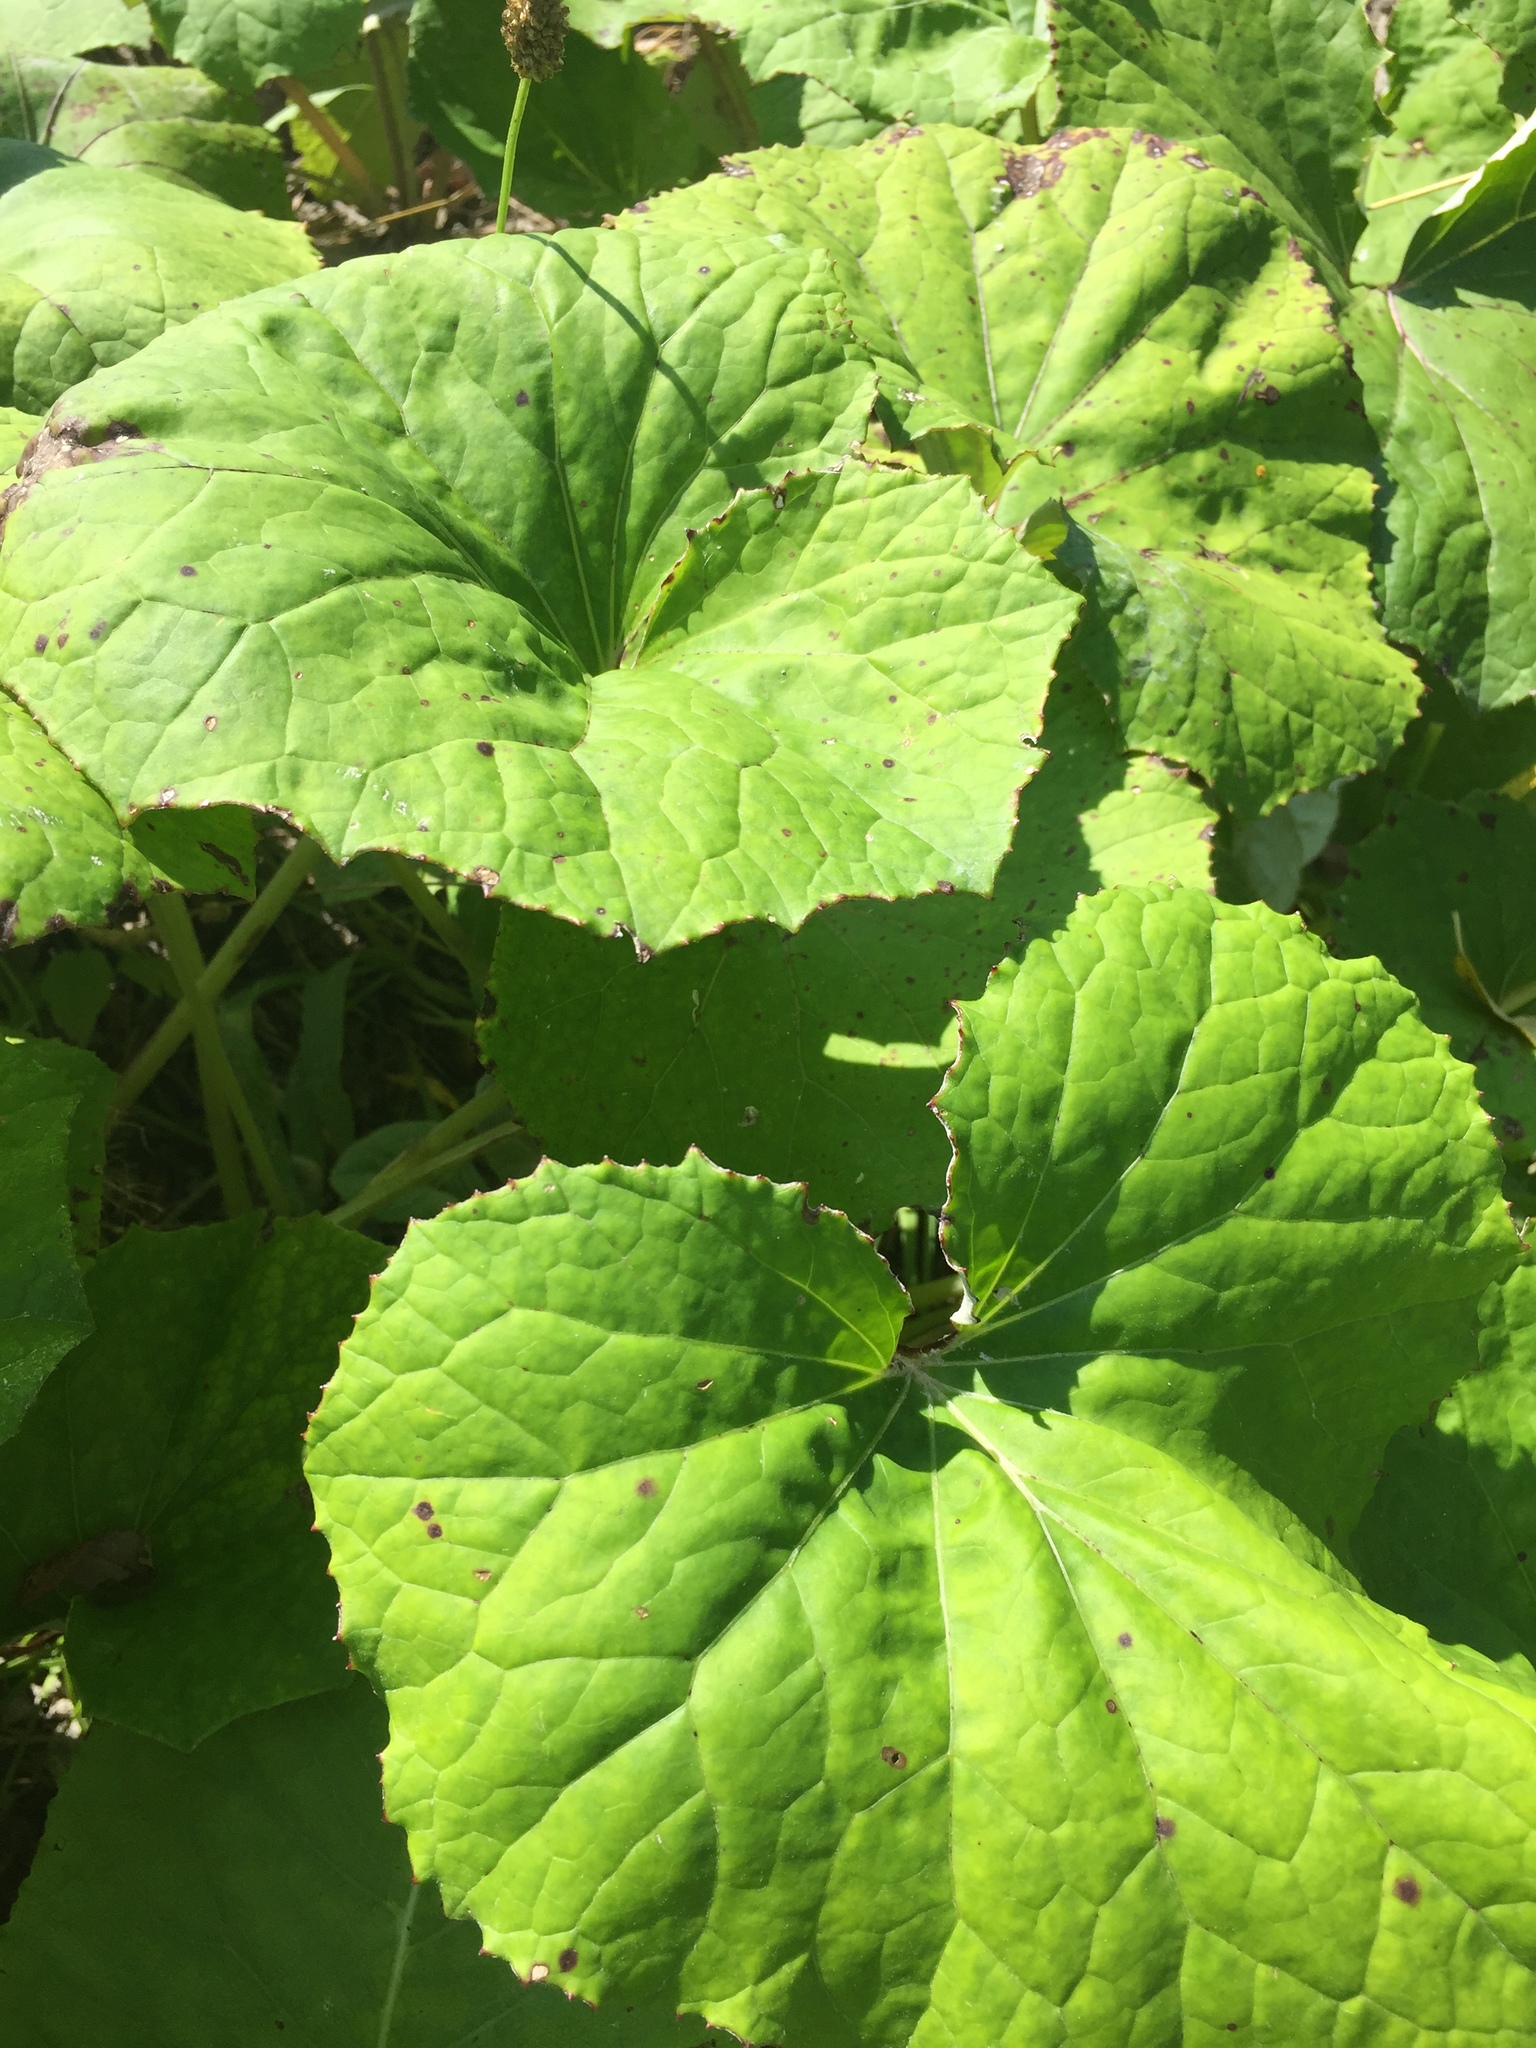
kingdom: Plantae
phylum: Tracheophyta
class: Magnoliopsida
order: Asterales
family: Asteraceae
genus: Tussilago
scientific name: Tussilago farfara
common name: Coltsfoot
